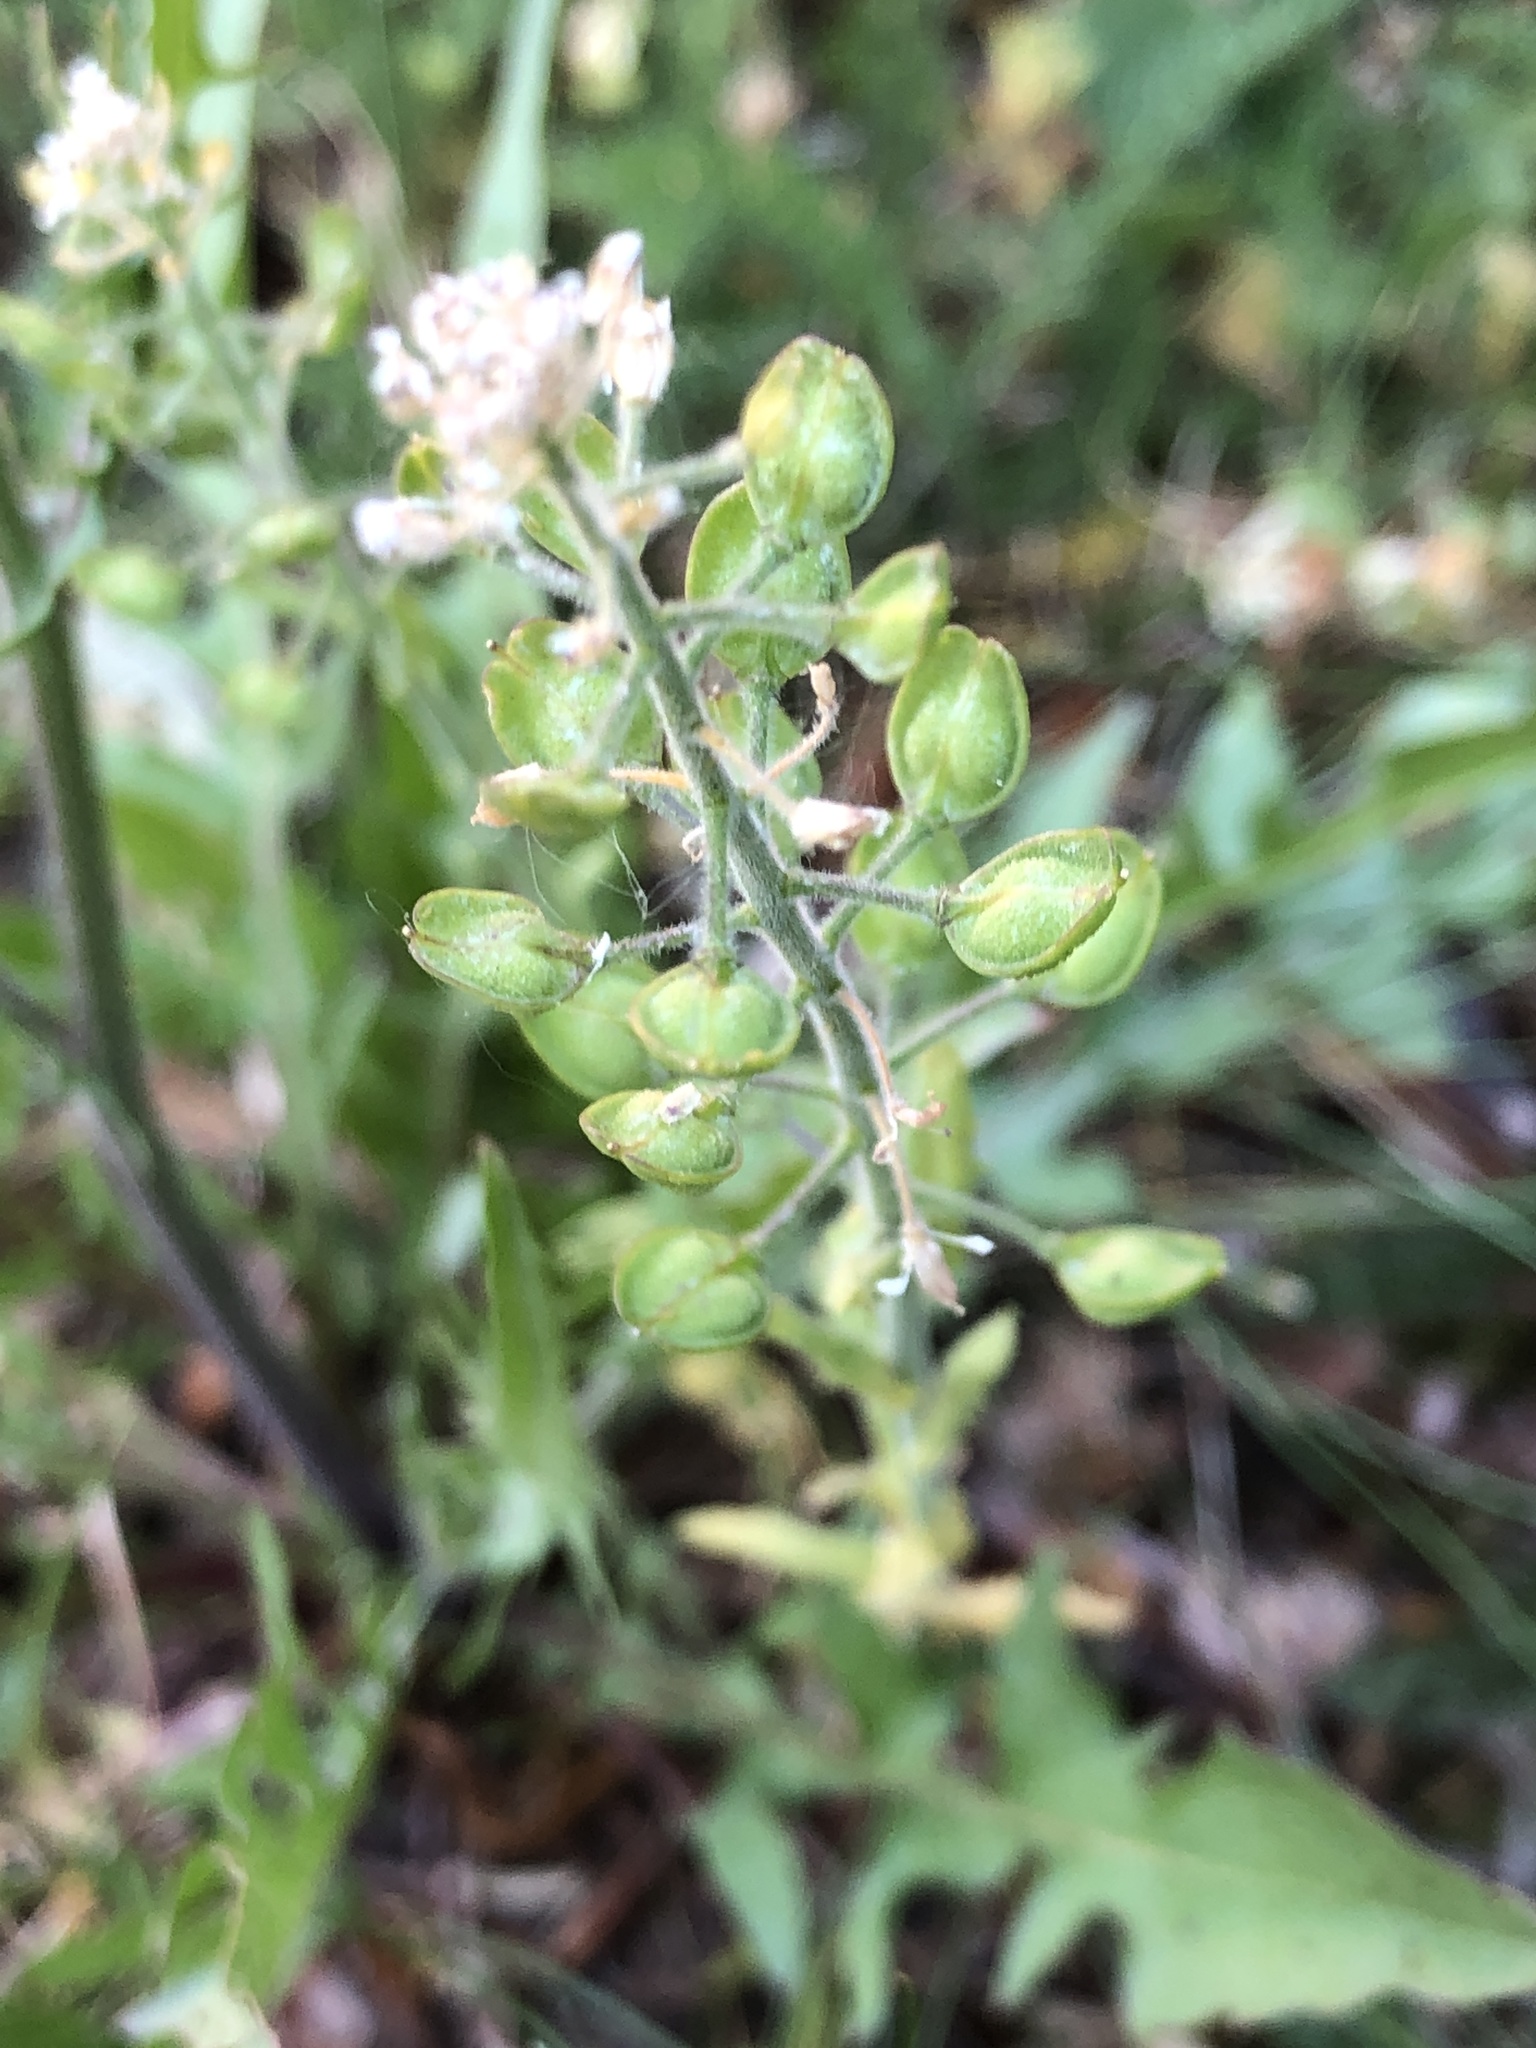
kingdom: Plantae
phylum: Tracheophyta
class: Magnoliopsida
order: Brassicales
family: Brassicaceae
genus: Lepidium
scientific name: Lepidium campestre
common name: Field pepperwort
